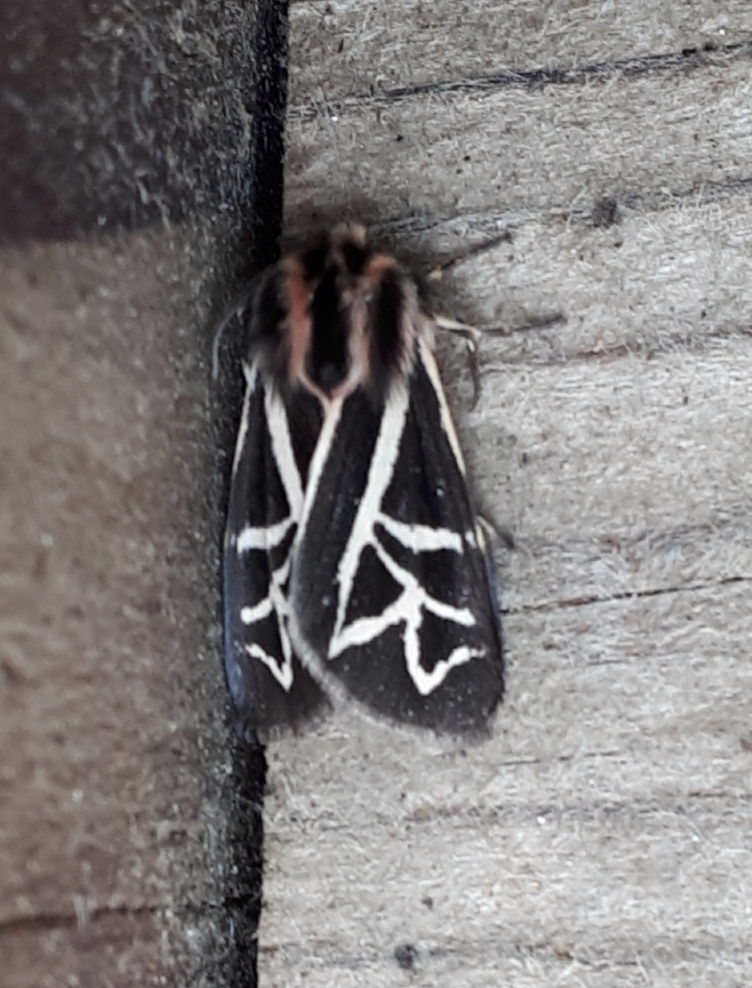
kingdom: Animalia
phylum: Arthropoda
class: Insecta
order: Lepidoptera
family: Erebidae
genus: Apantesis
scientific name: Apantesis
